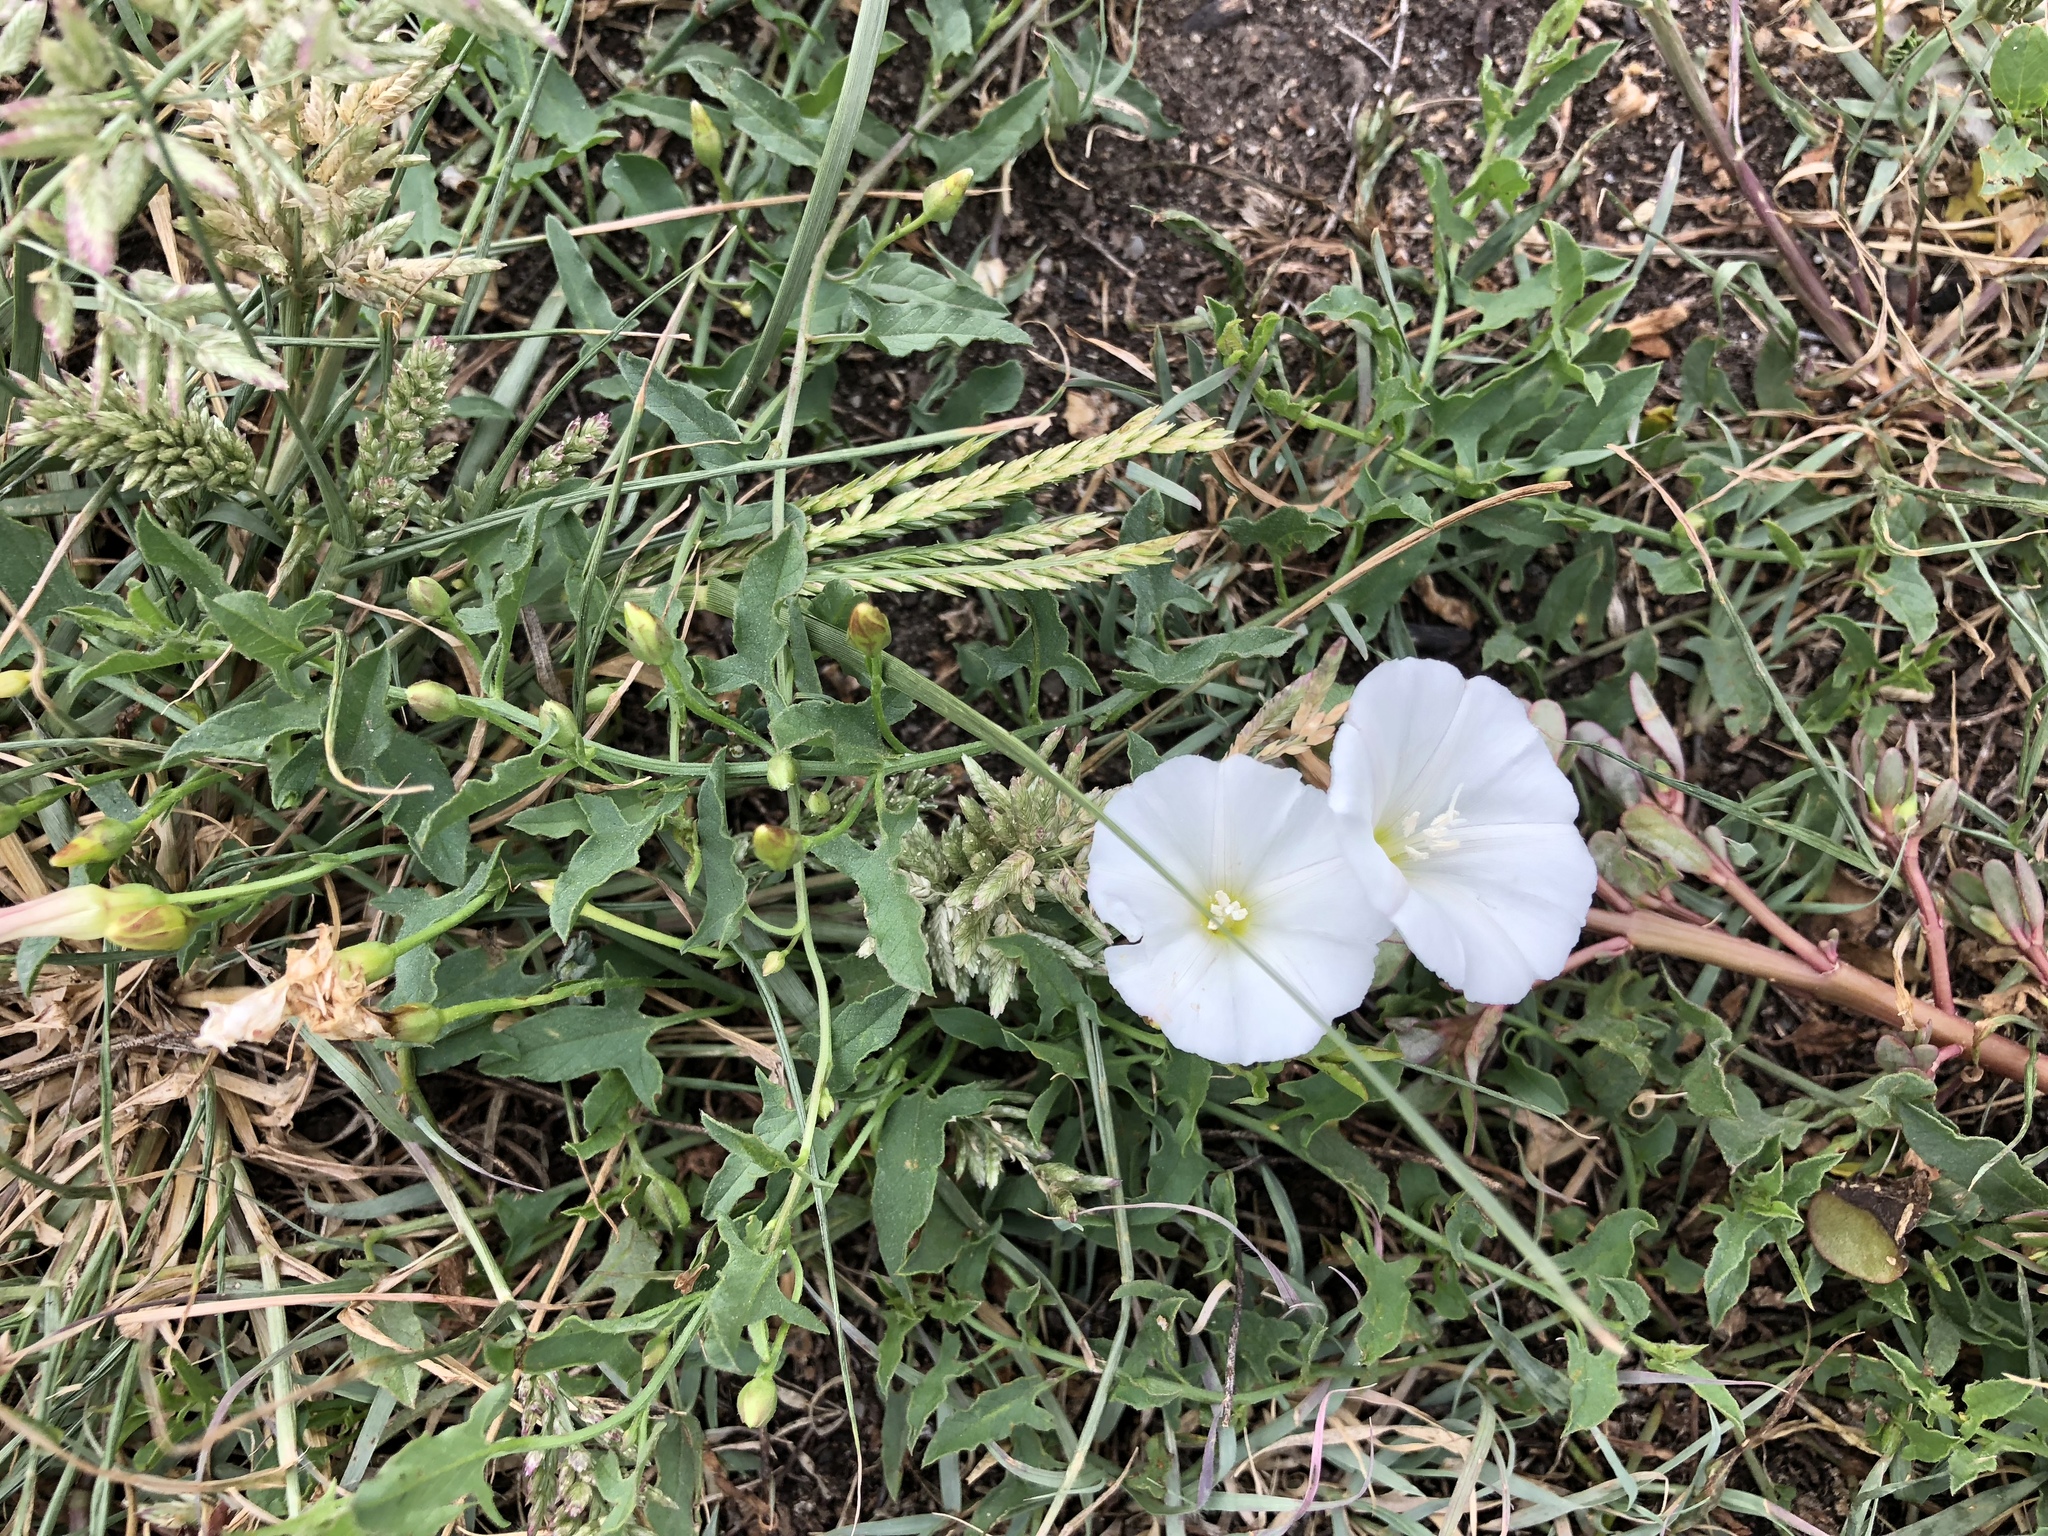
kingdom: Plantae
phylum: Tracheophyta
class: Magnoliopsida
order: Solanales
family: Convolvulaceae
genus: Convolvulus
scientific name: Convolvulus arvensis
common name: Field bindweed
